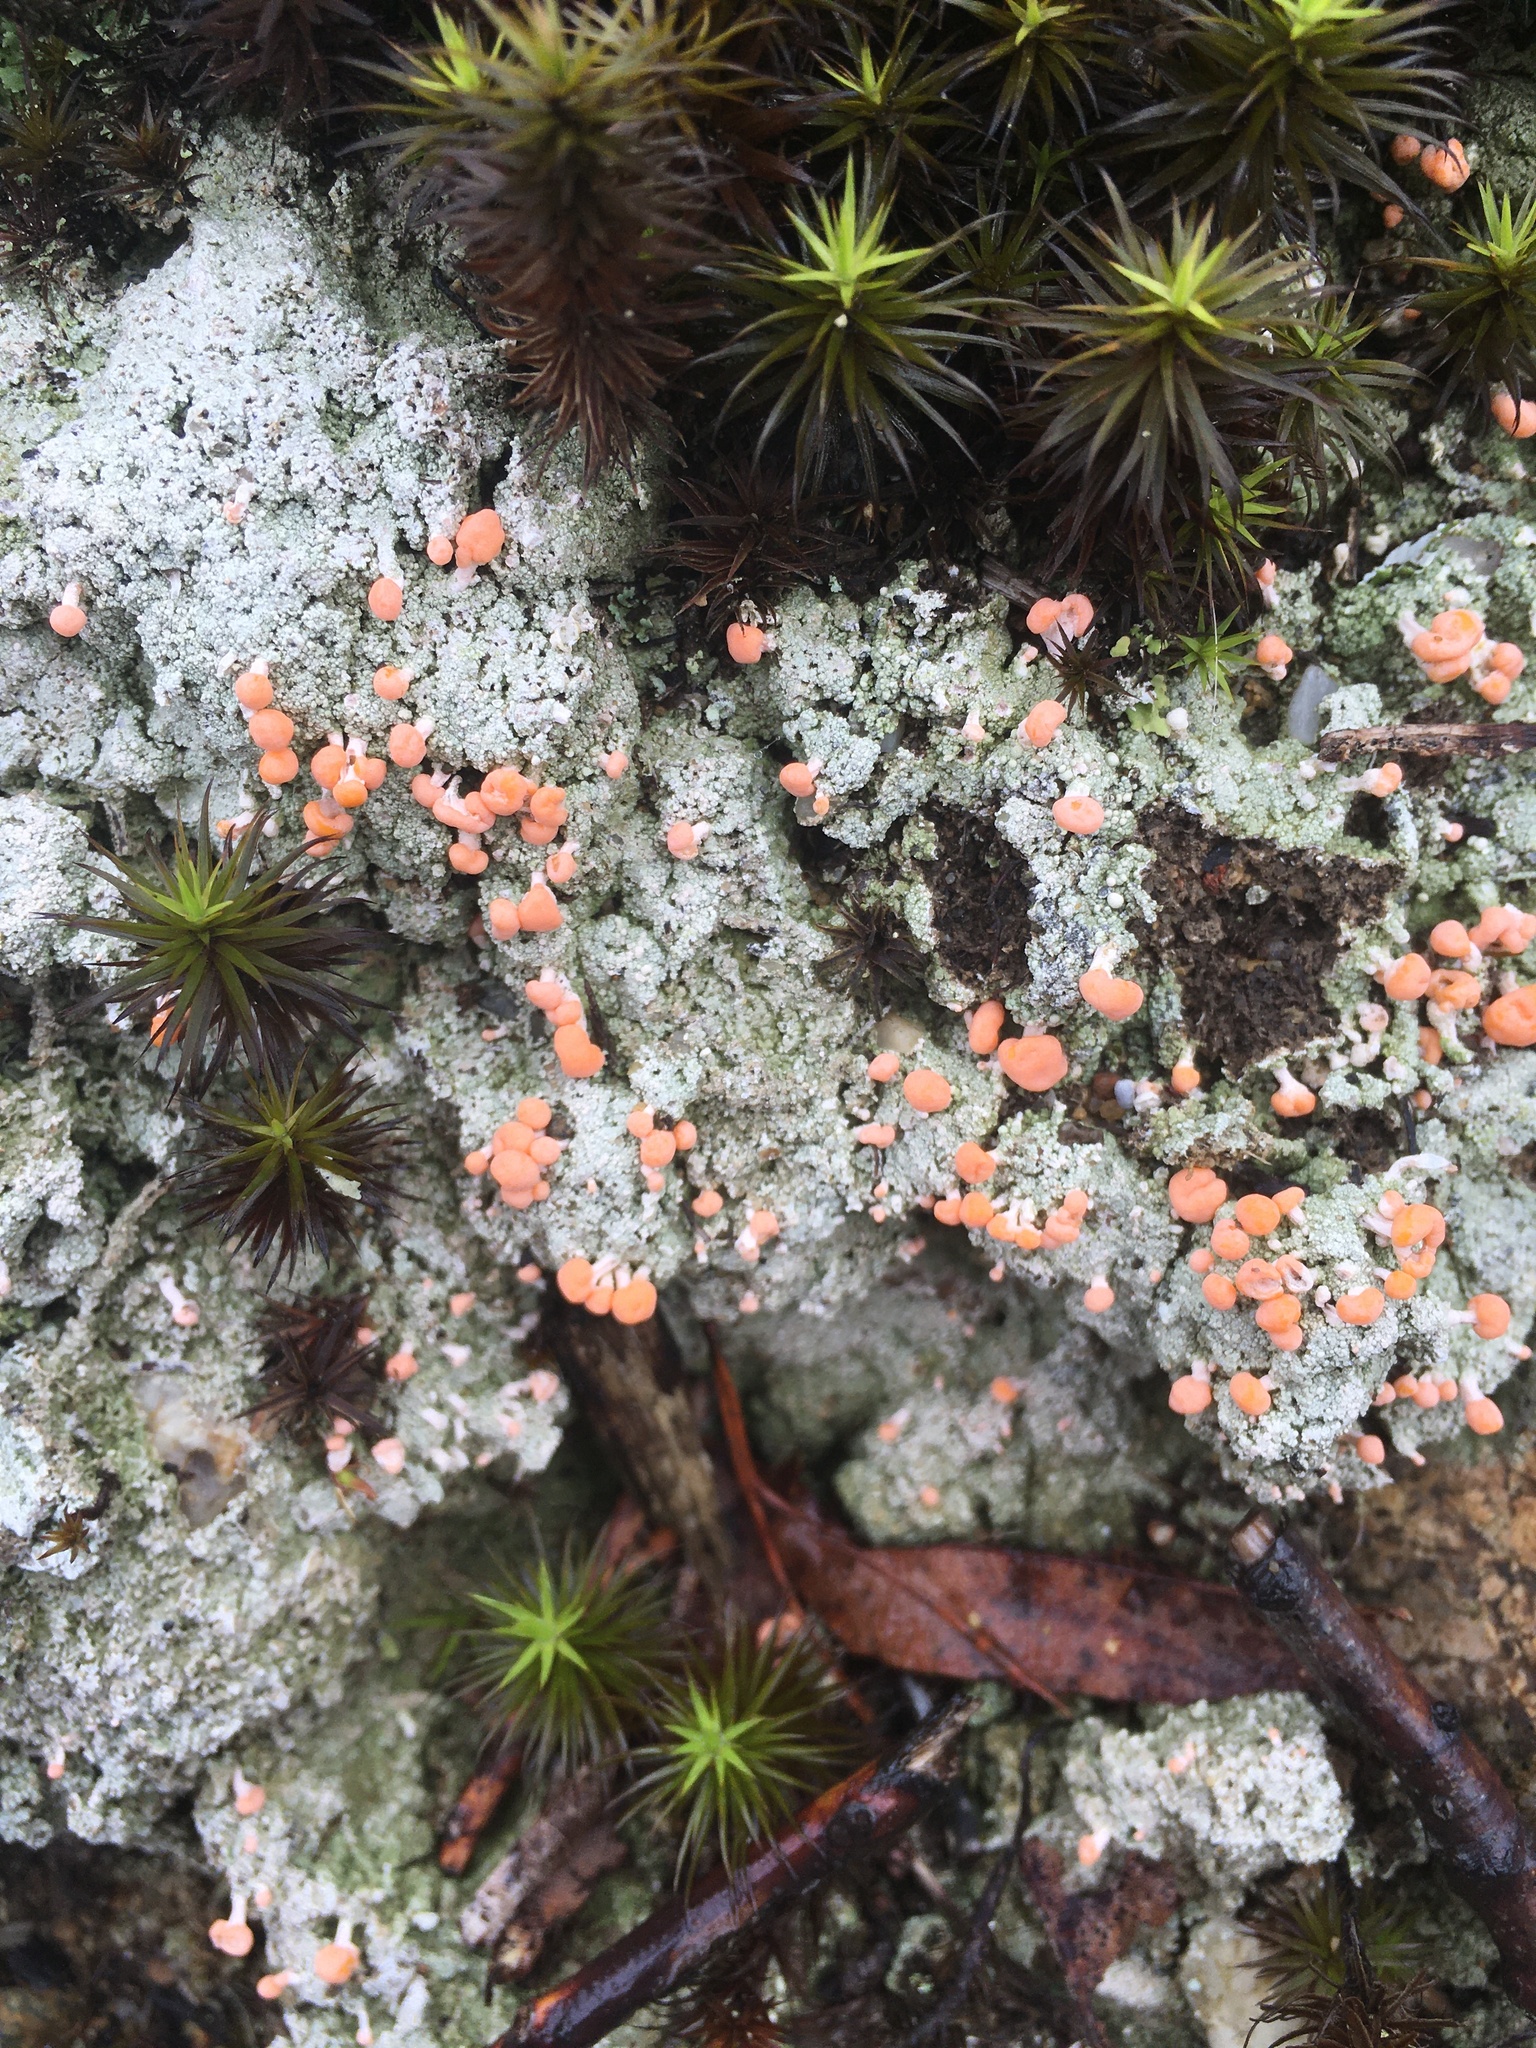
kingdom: Fungi
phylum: Ascomycota
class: Lecanoromycetes
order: Pertusariales
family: Icmadophilaceae
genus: Dibaeis
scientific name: Dibaeis baeomyces
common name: Pink earth lichen
